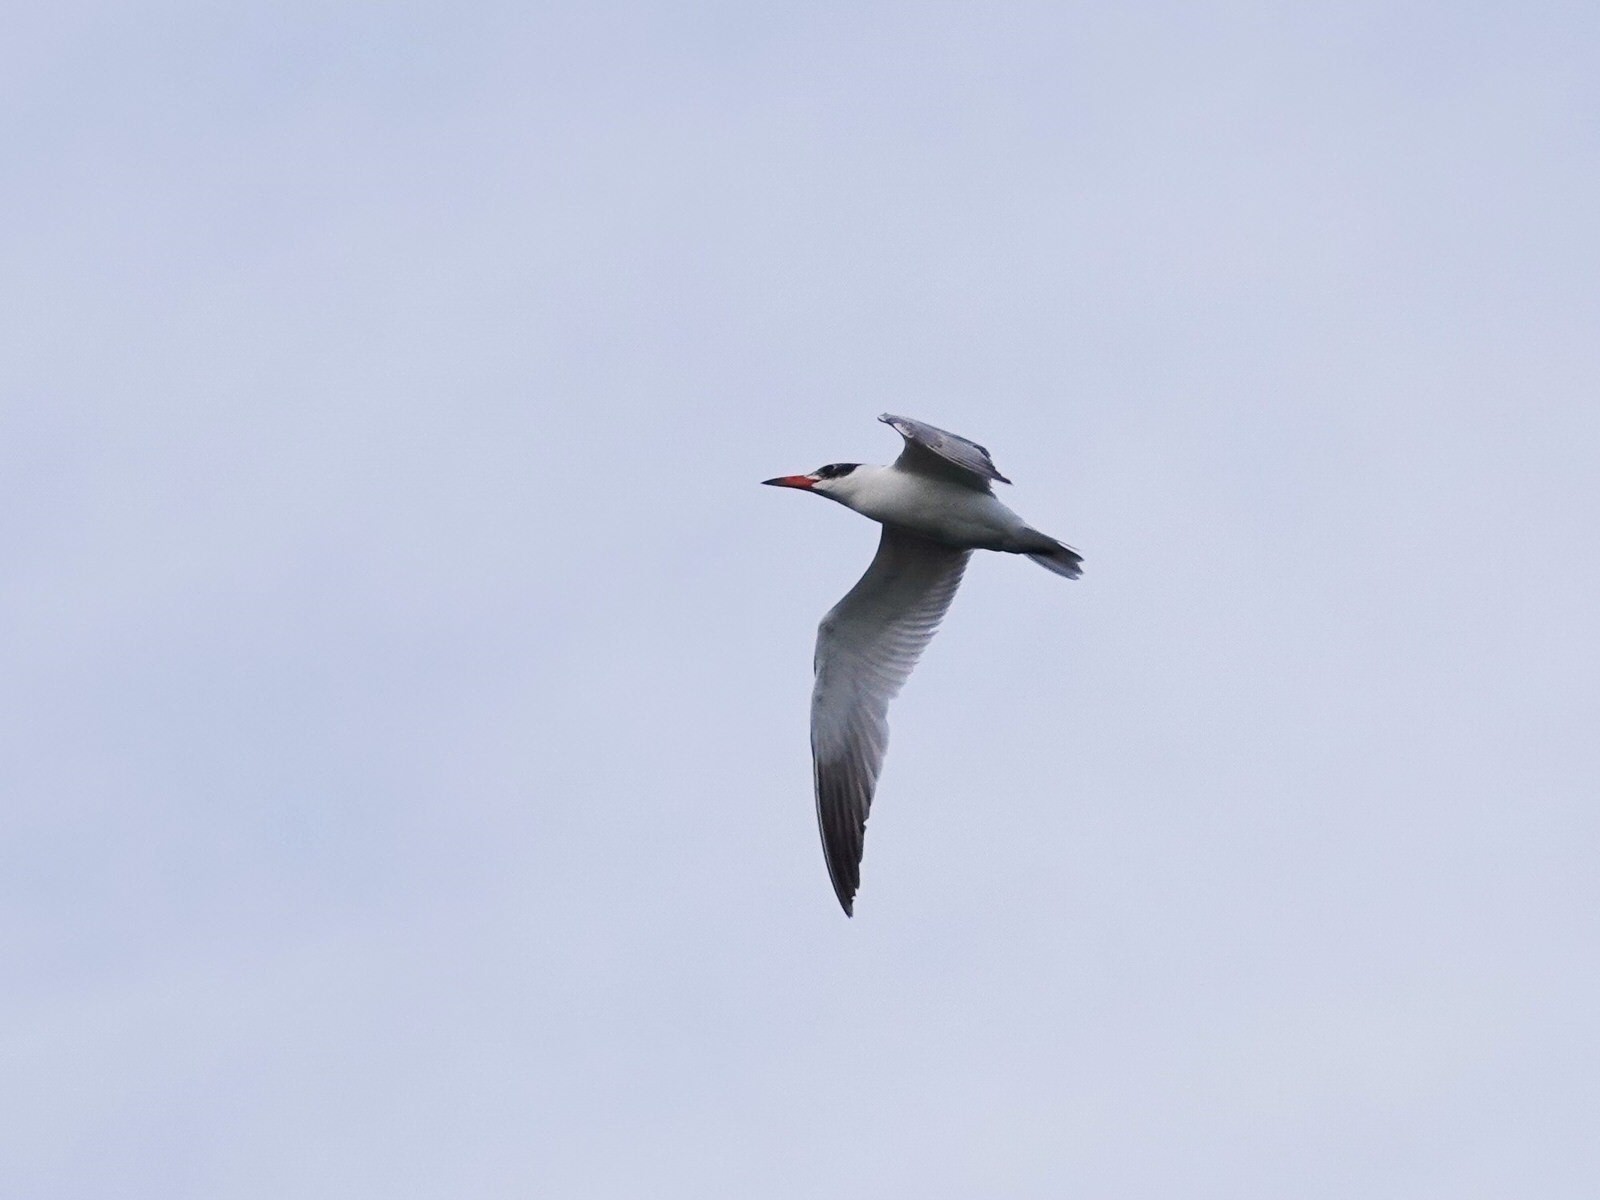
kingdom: Animalia
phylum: Chordata
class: Aves
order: Charadriiformes
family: Laridae
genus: Hydroprogne
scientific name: Hydroprogne caspia
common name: Caspian tern
